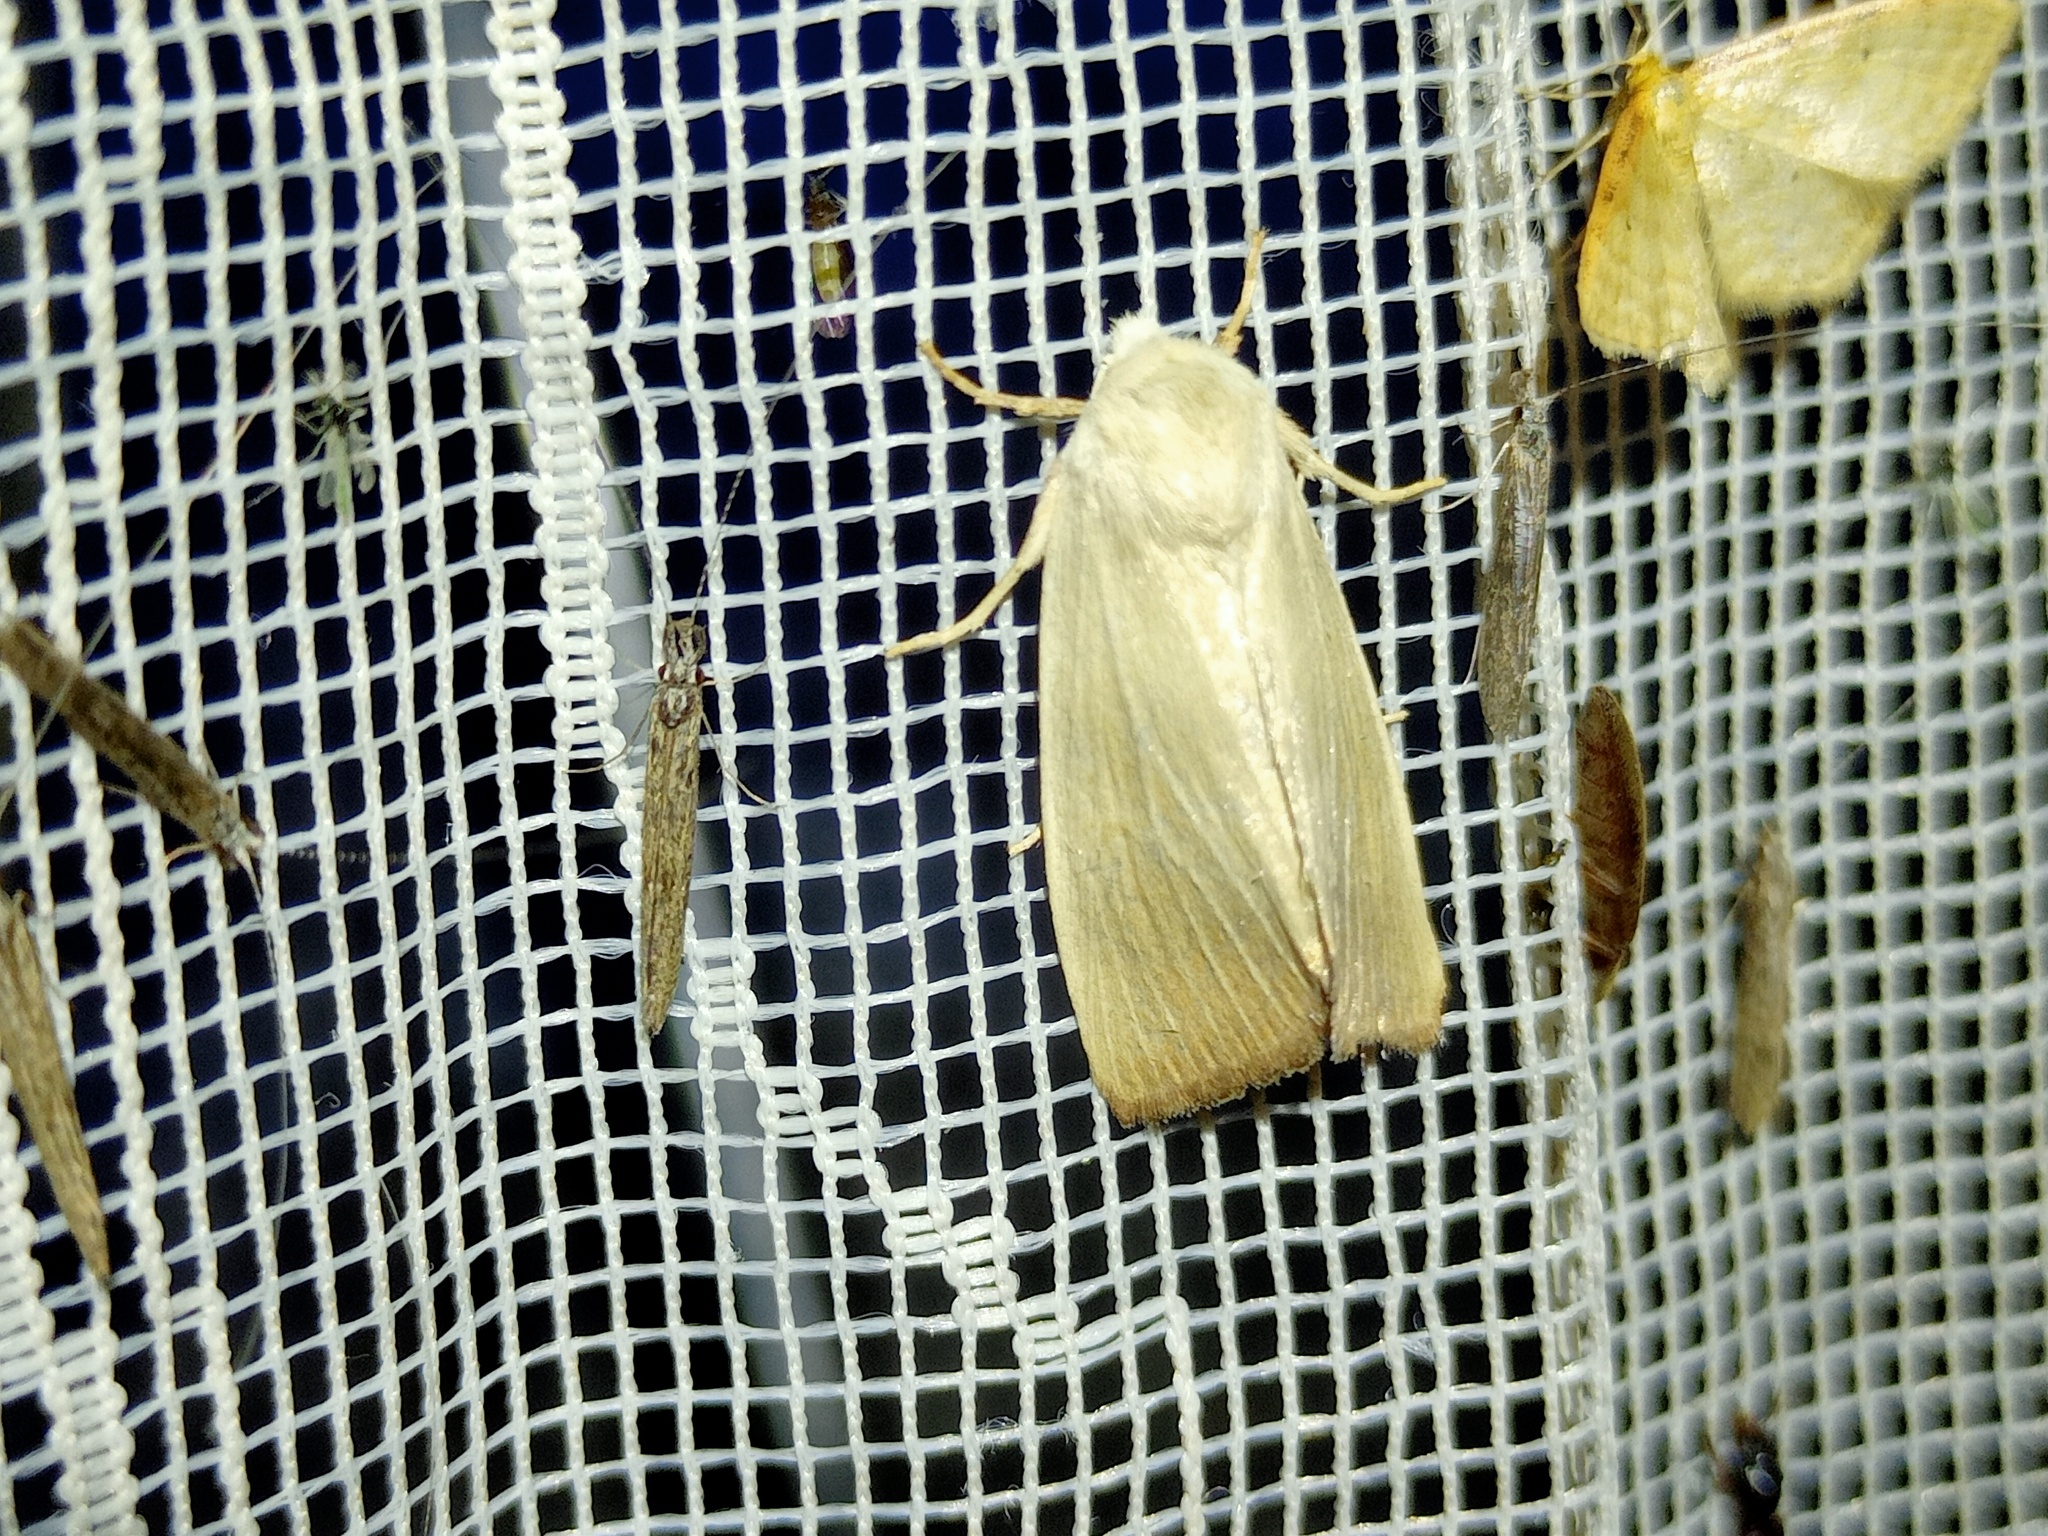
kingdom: Animalia
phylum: Arthropoda
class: Insecta
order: Lepidoptera
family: Noctuidae
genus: Arenostola
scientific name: Arenostola phragmitidis
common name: Fen wainscot
